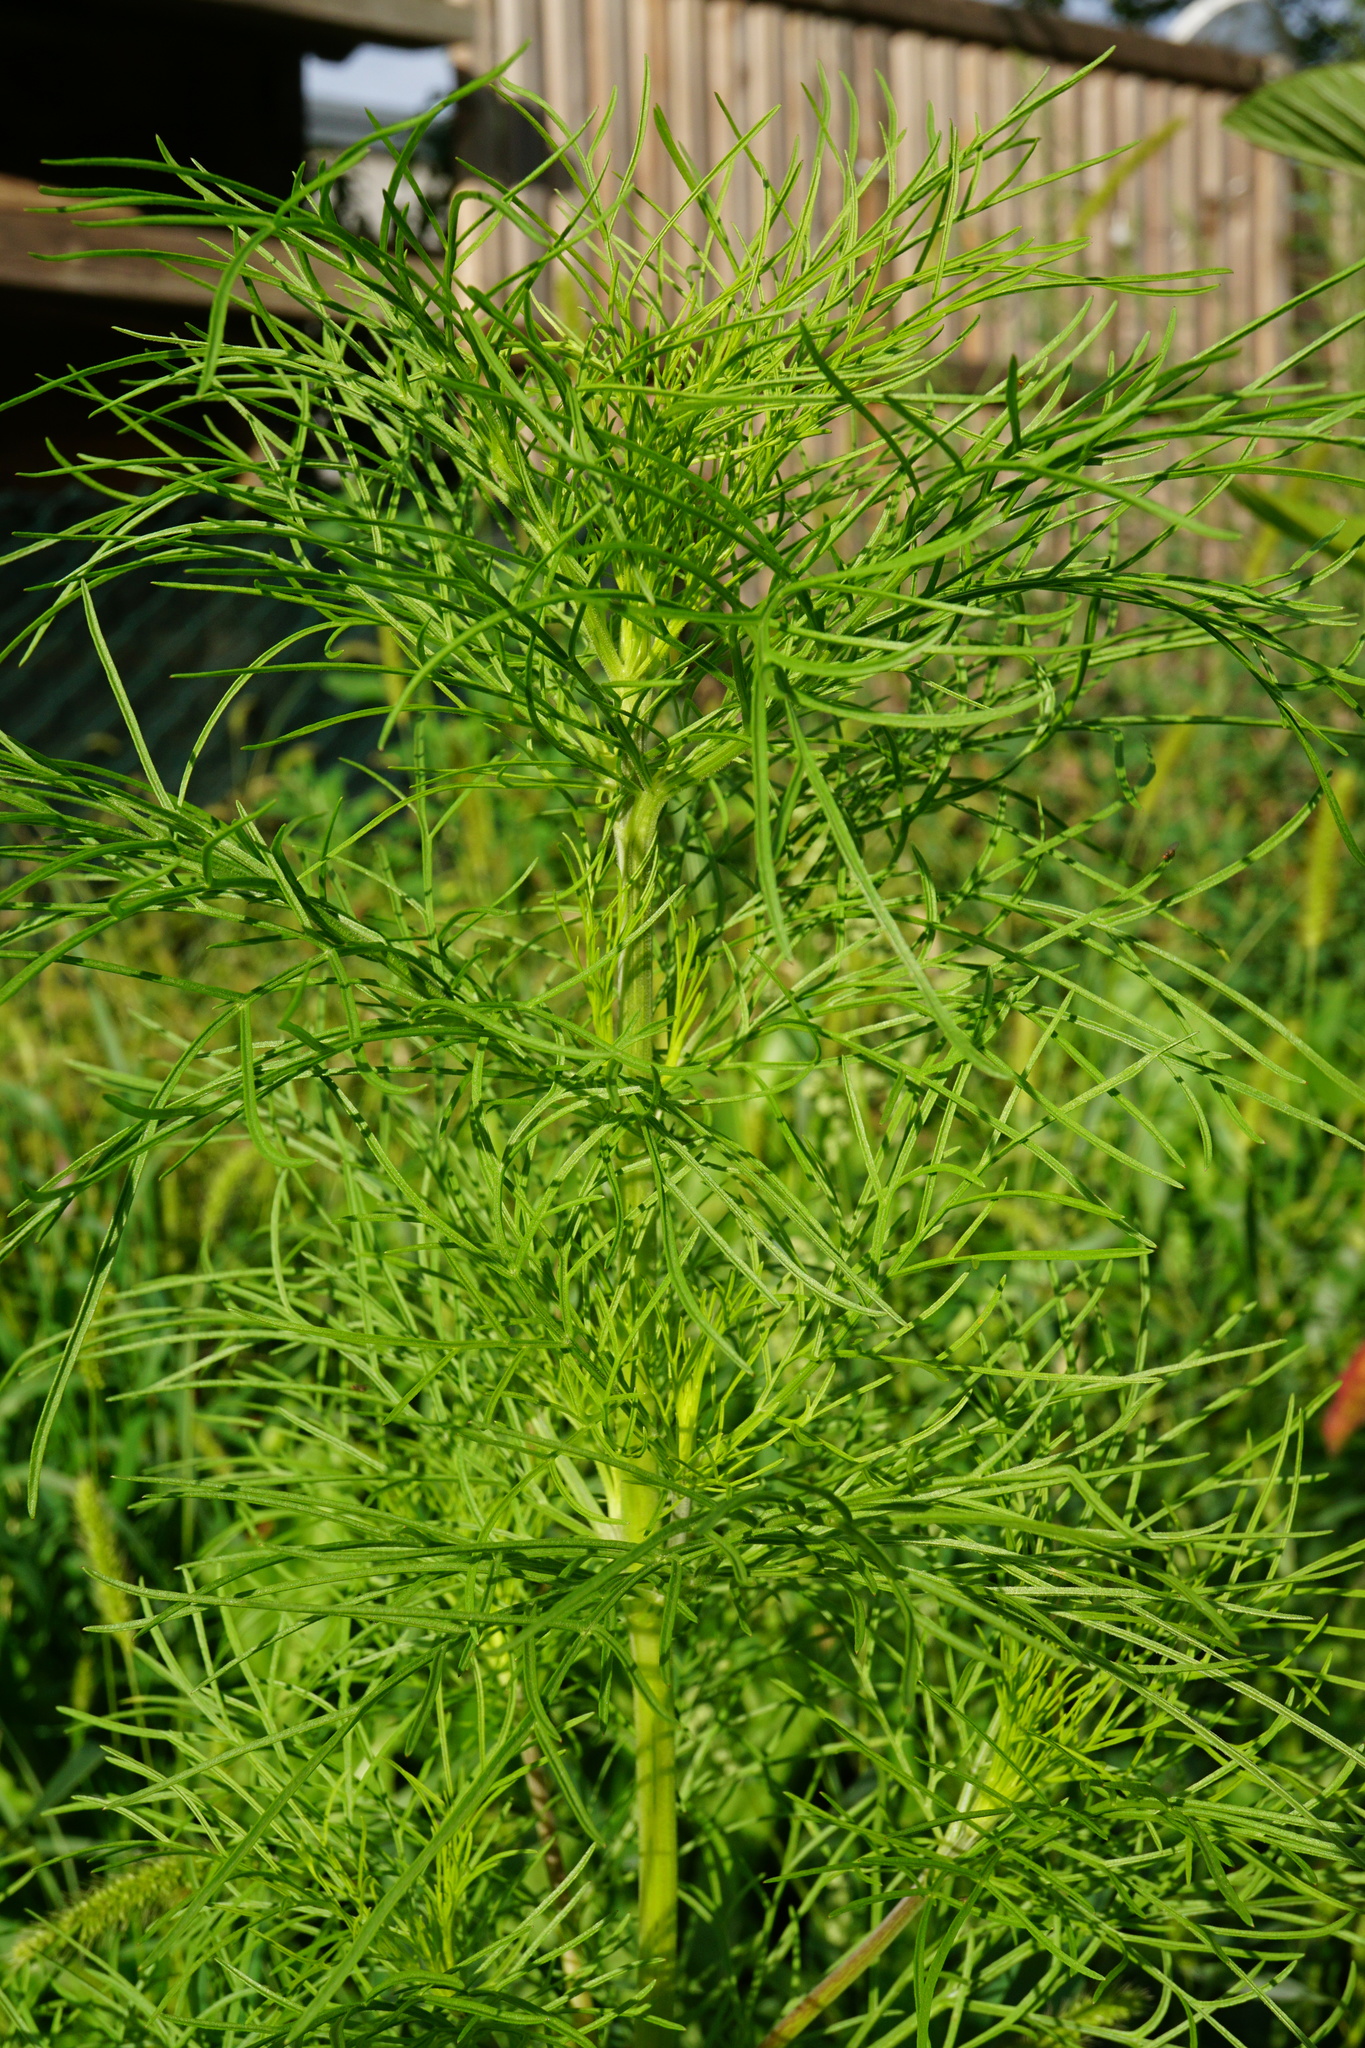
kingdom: Plantae
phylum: Tracheophyta
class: Magnoliopsida
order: Asterales
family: Asteraceae
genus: Cosmos
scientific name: Cosmos bipinnatus
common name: Garden cosmos
